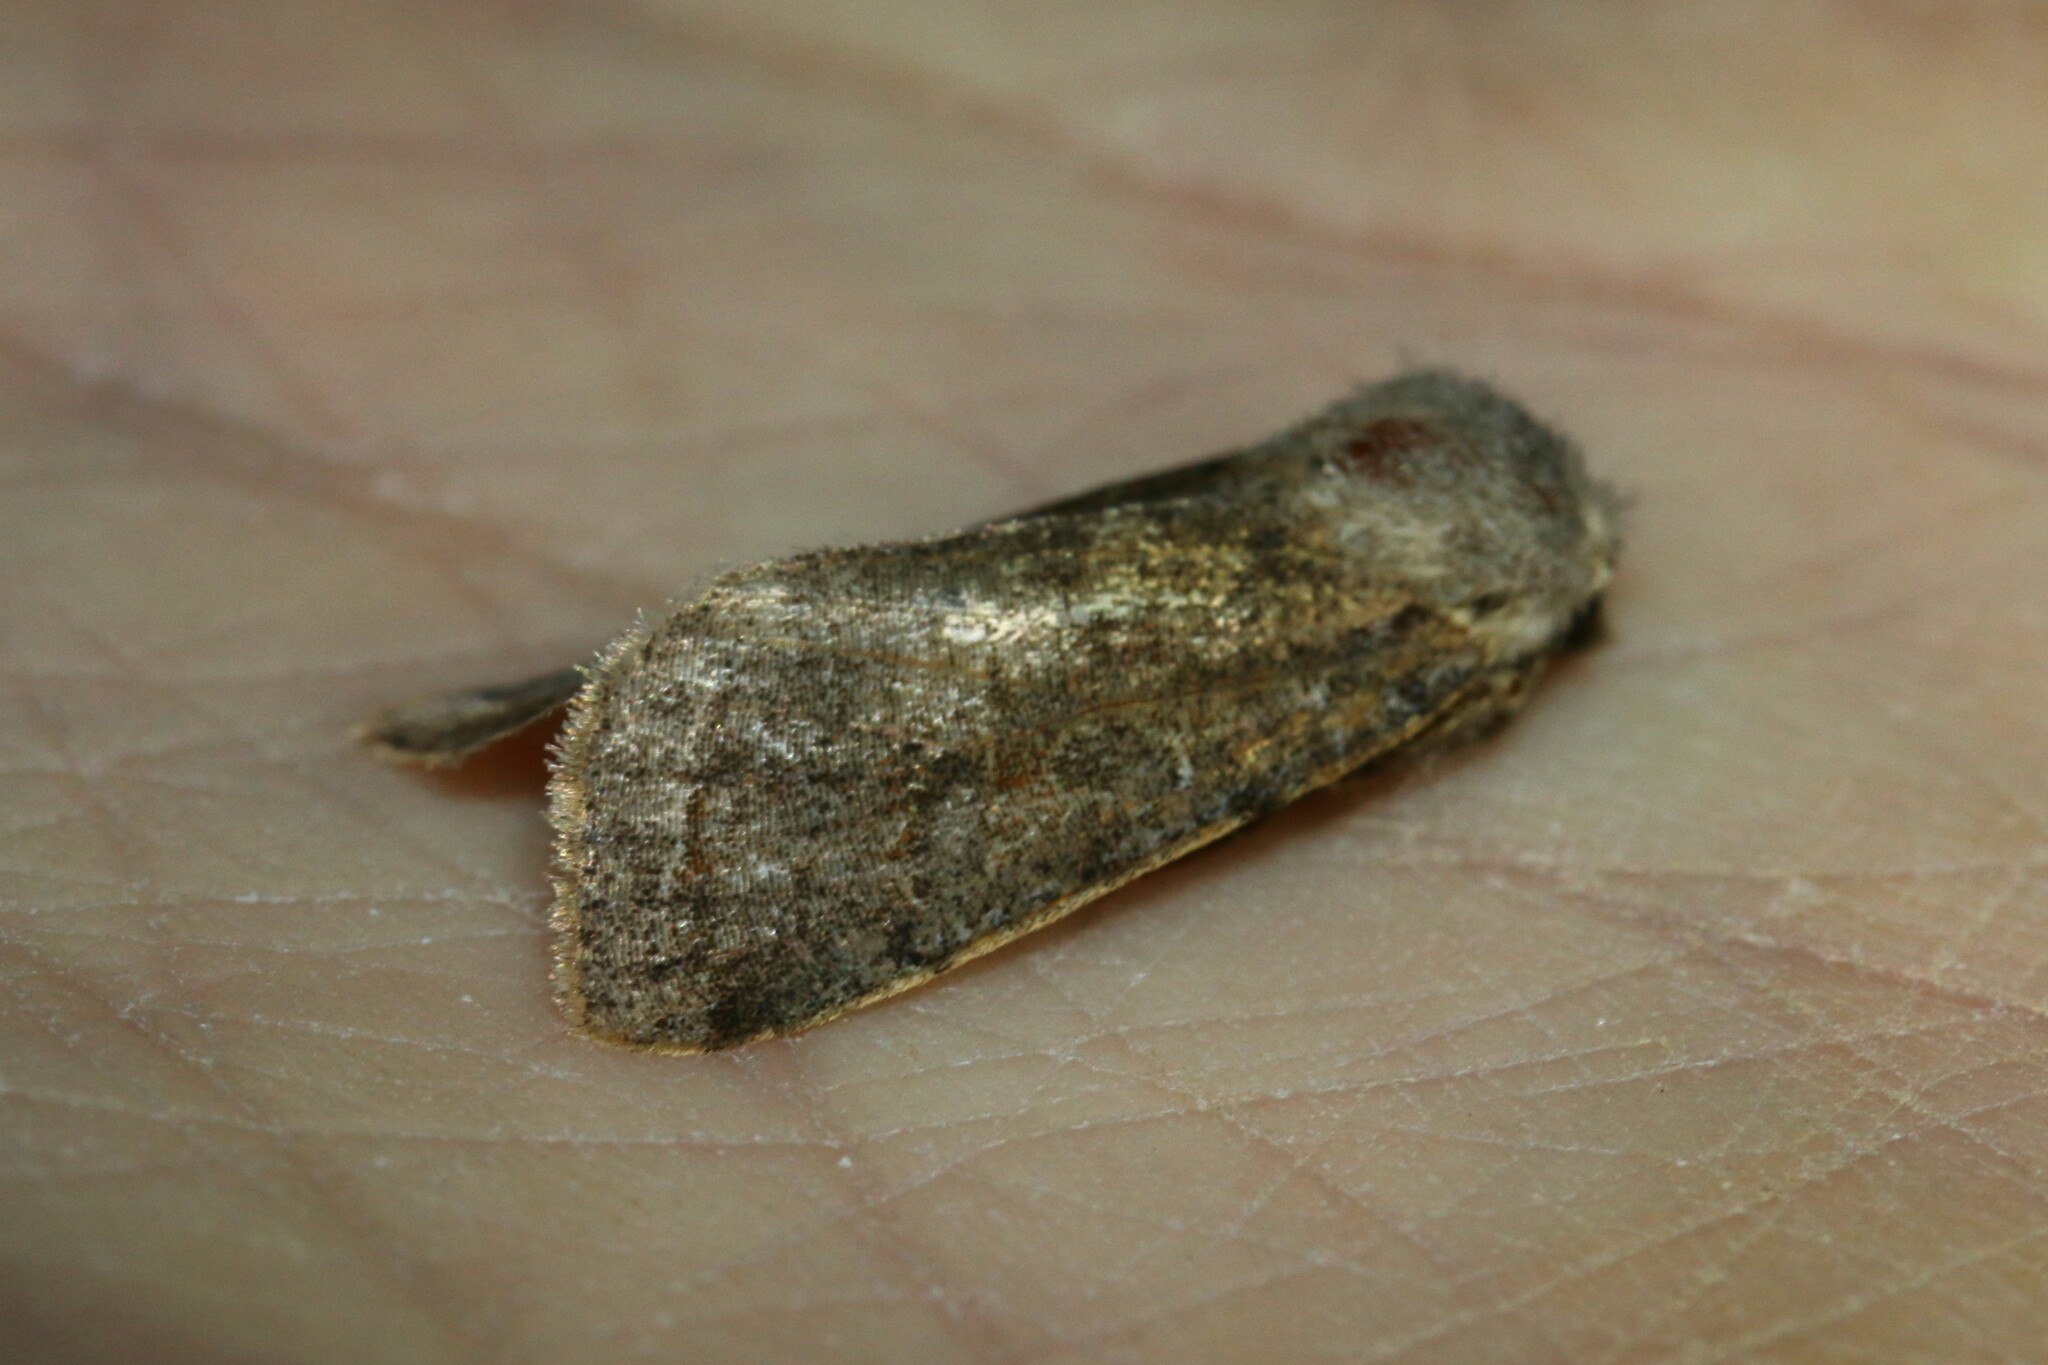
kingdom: Animalia
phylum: Arthropoda
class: Insecta
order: Lepidoptera
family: Noctuidae
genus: Orthosia
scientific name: Orthosia incerta
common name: Clouded drab
